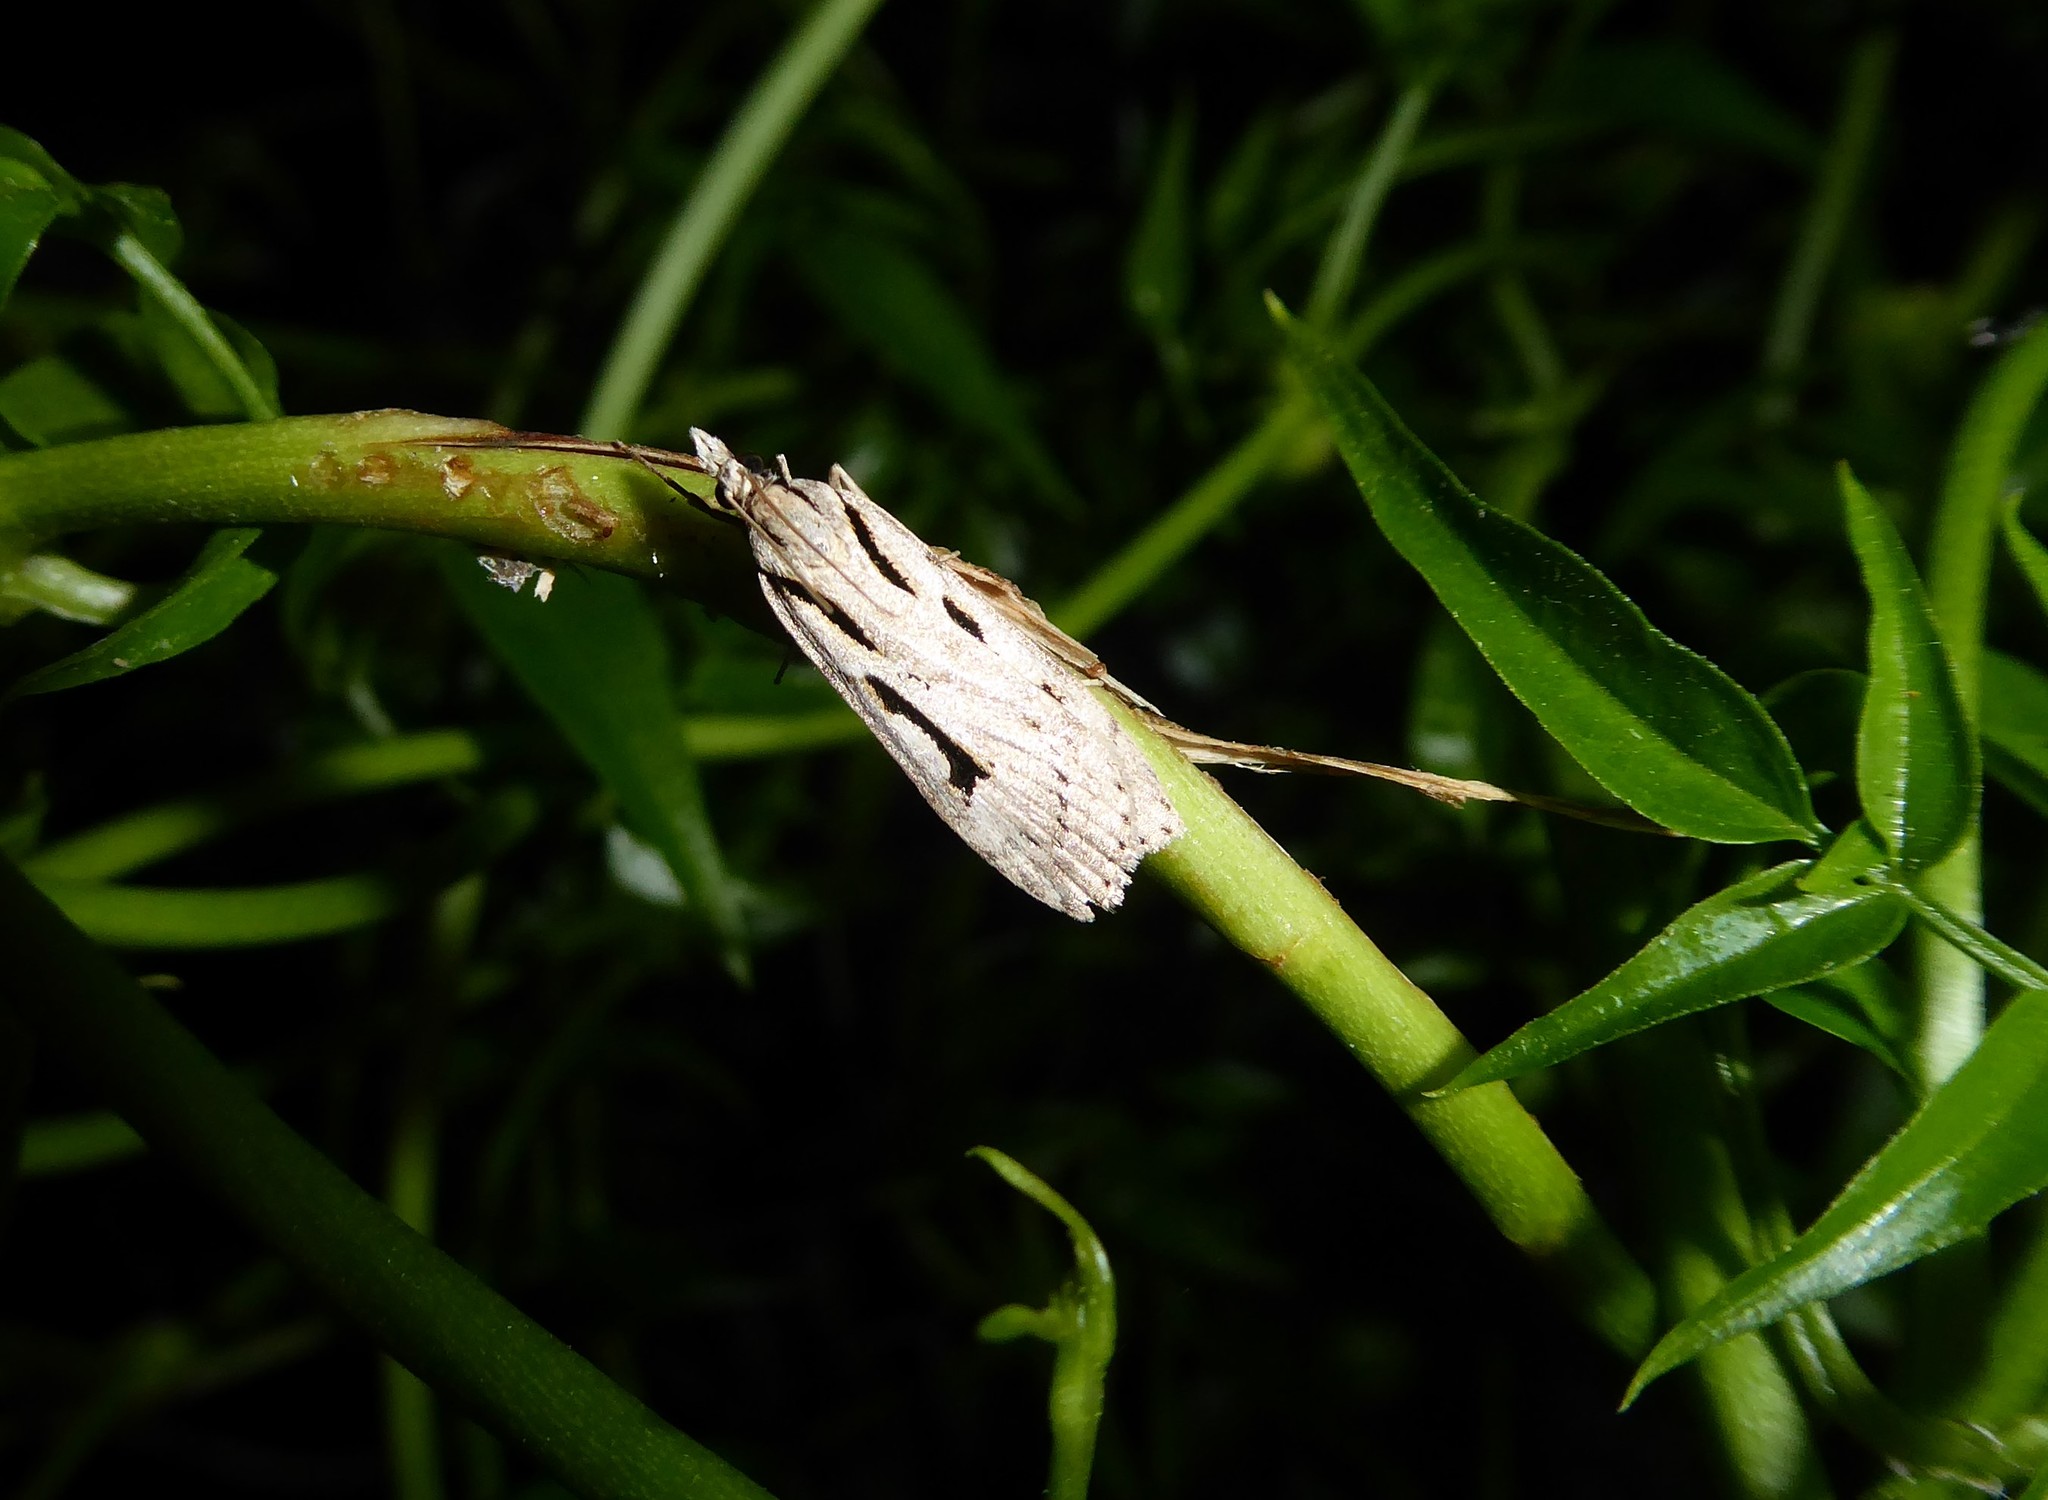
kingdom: Animalia
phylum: Arthropoda
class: Insecta
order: Lepidoptera
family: Crambidae
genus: Scoparia
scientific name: Scoparia rotuellus
